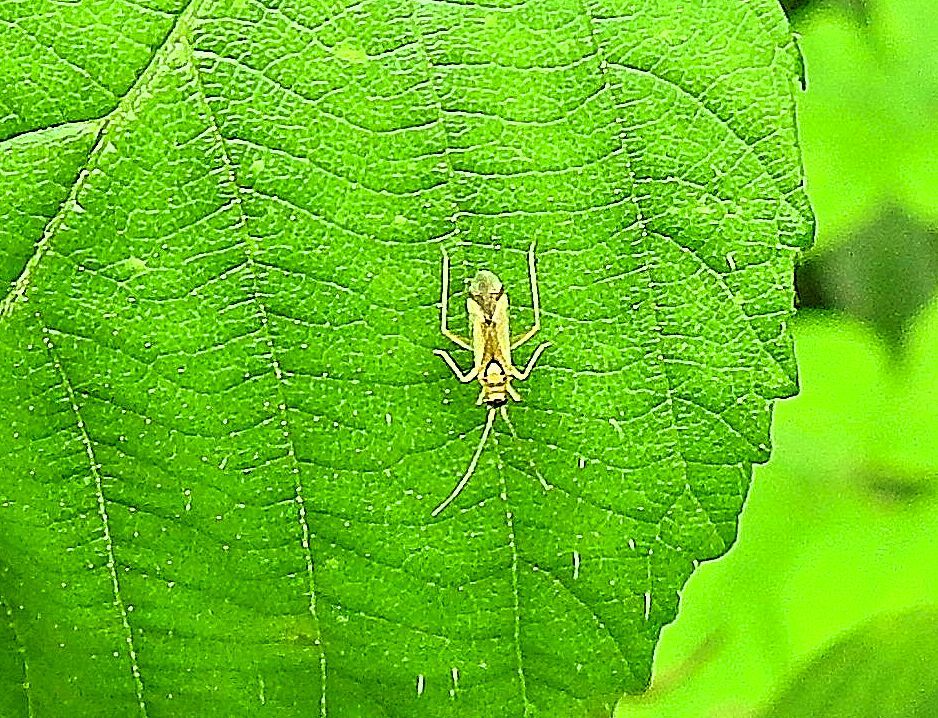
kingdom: Animalia
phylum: Arthropoda
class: Insecta
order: Hemiptera
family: Miridae
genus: Campyloneura
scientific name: Campyloneura virgula
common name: Predatory bug
